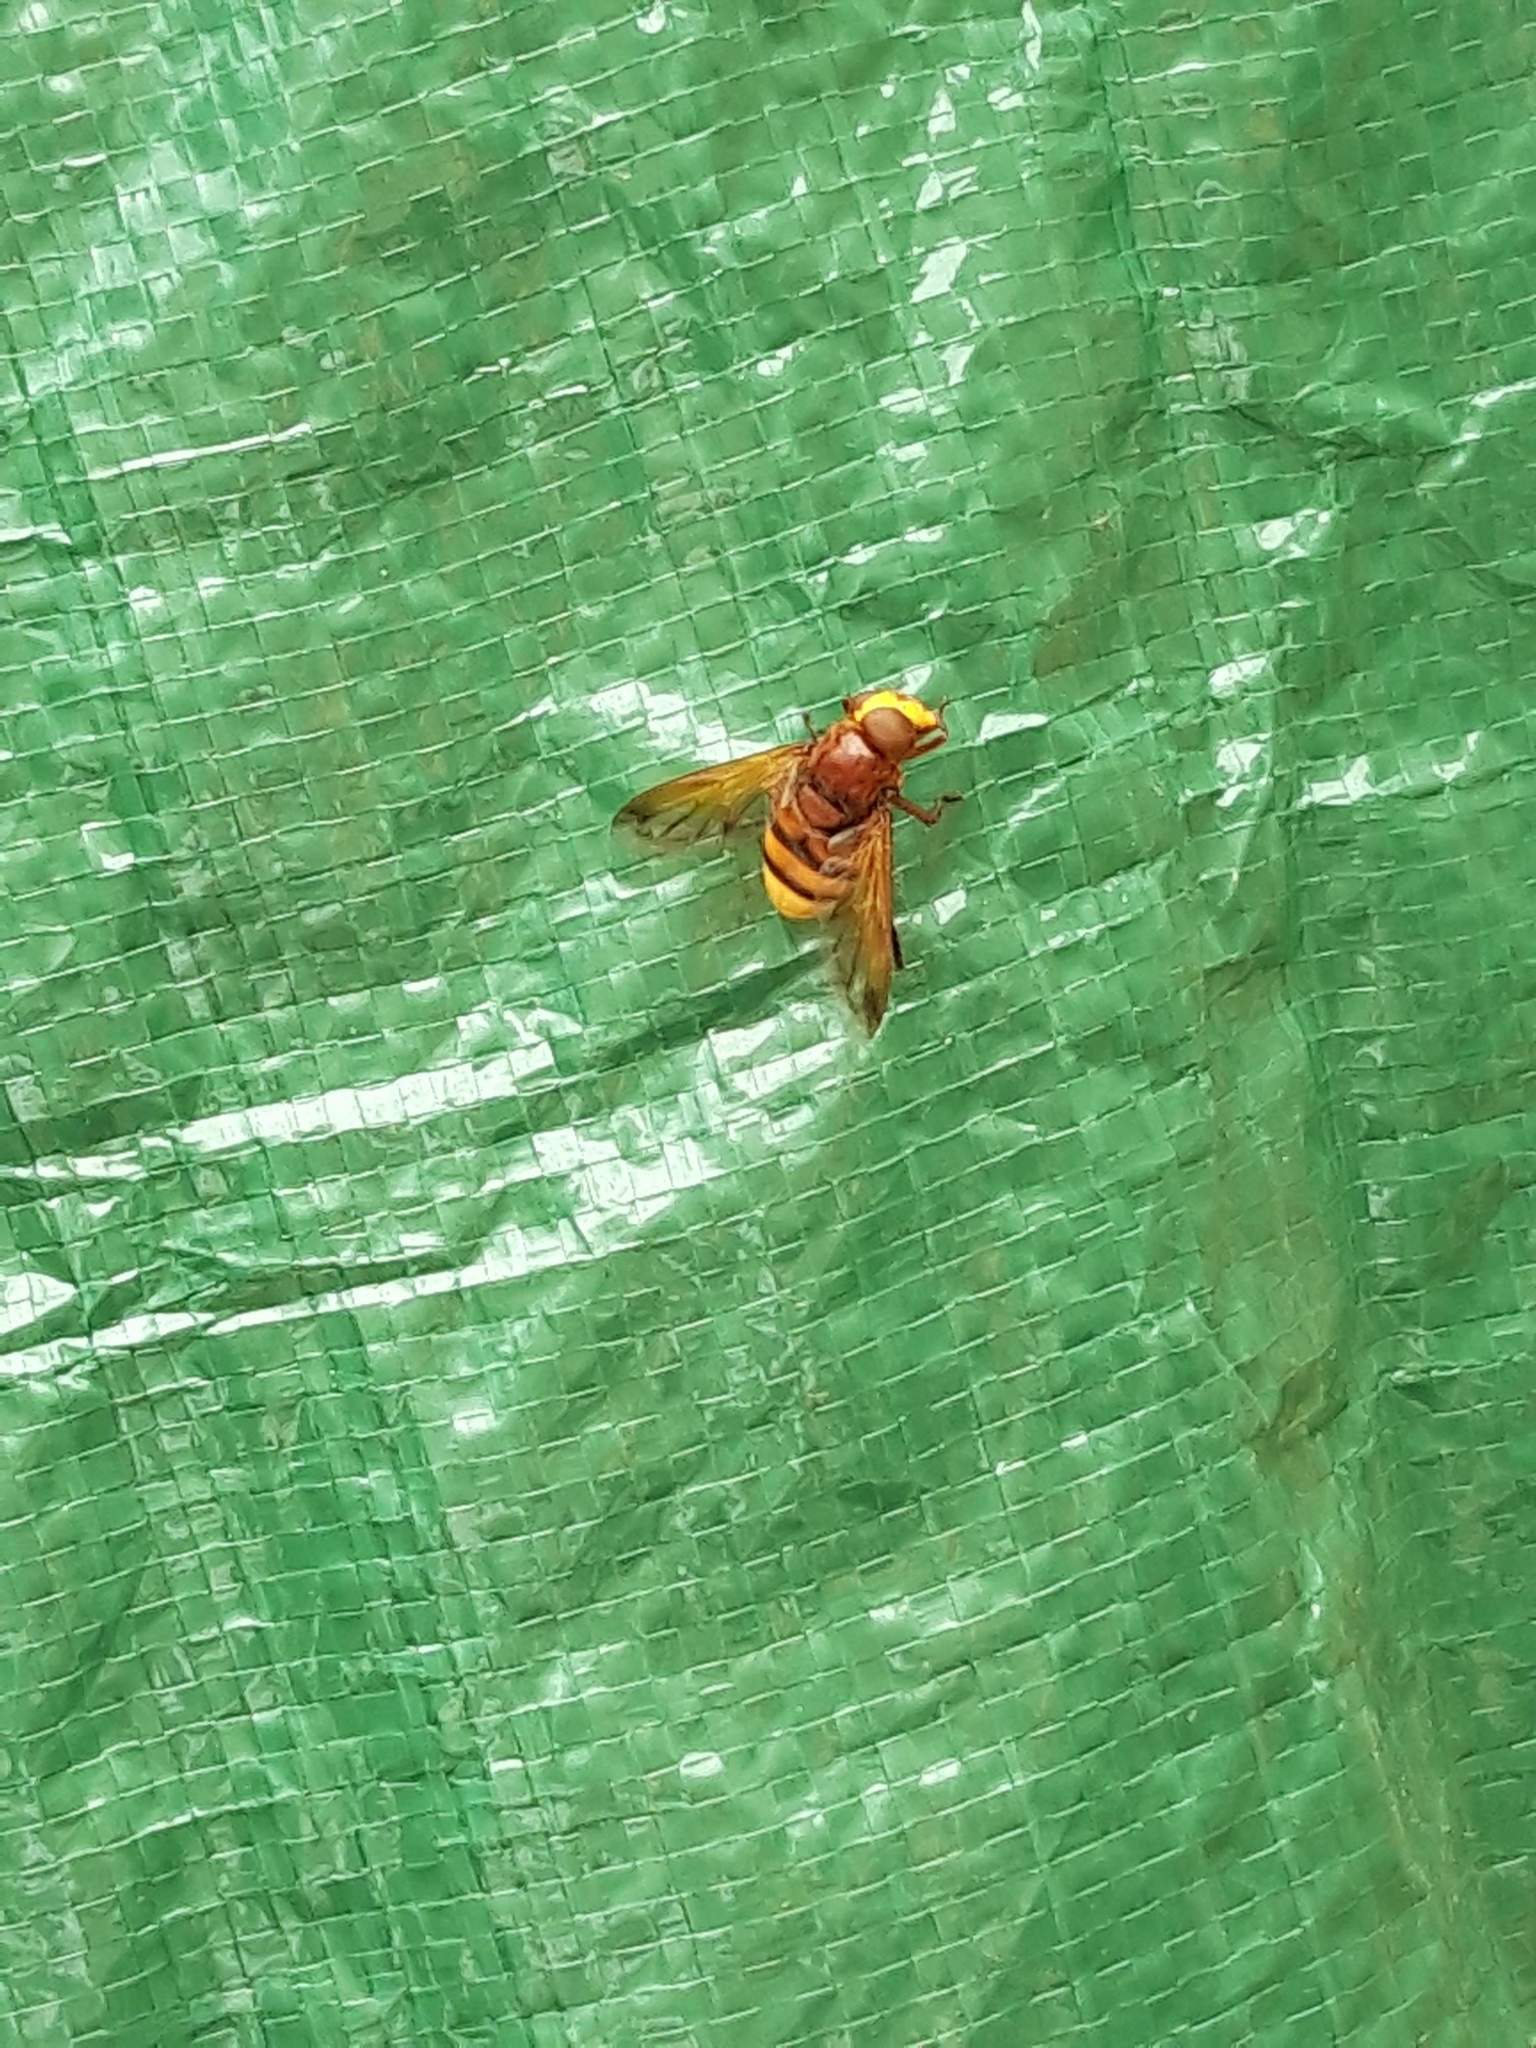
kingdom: Animalia
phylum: Arthropoda
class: Insecta
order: Diptera
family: Syrphidae
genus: Volucella
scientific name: Volucella zonaria
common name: Hornet hoverfly
